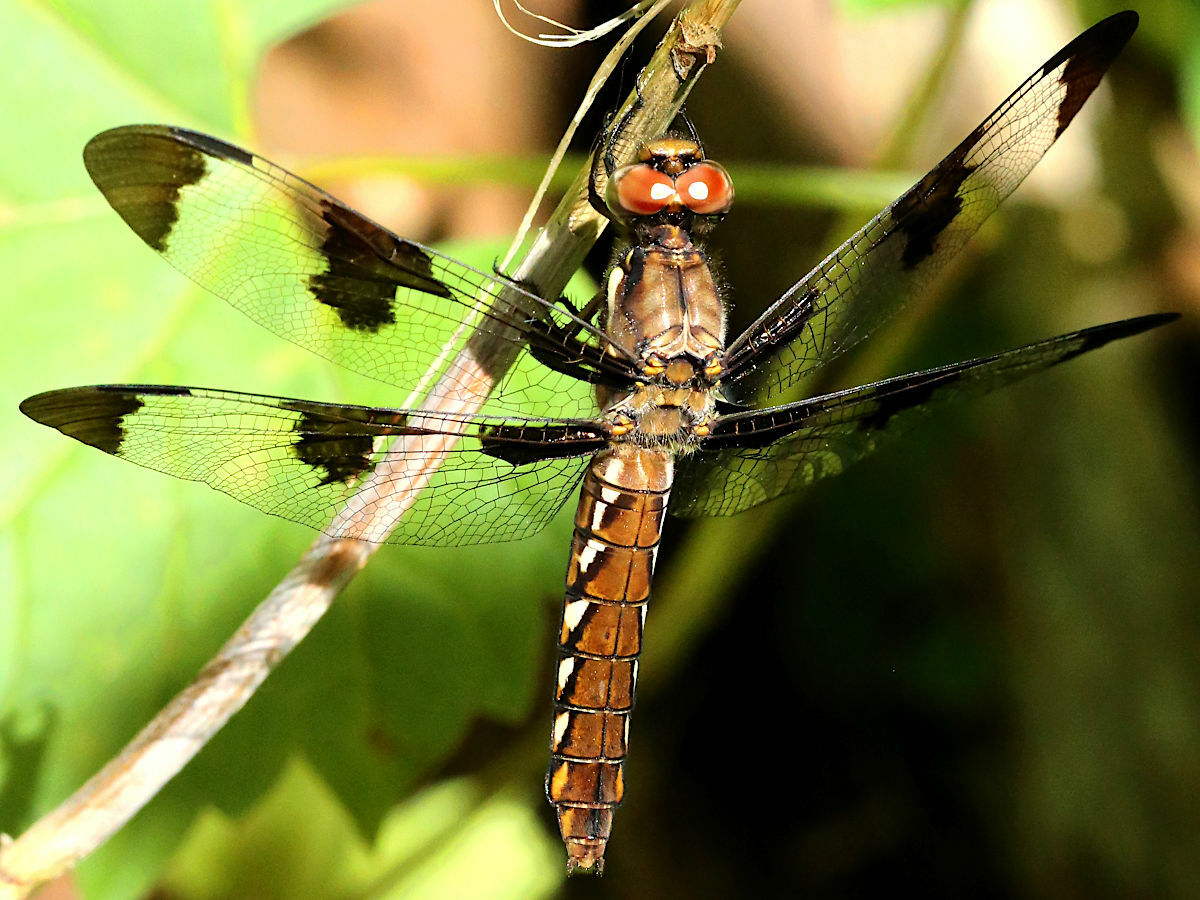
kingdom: Animalia
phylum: Arthropoda
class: Insecta
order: Odonata
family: Libellulidae
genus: Plathemis
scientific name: Plathemis lydia
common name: Common whitetail
